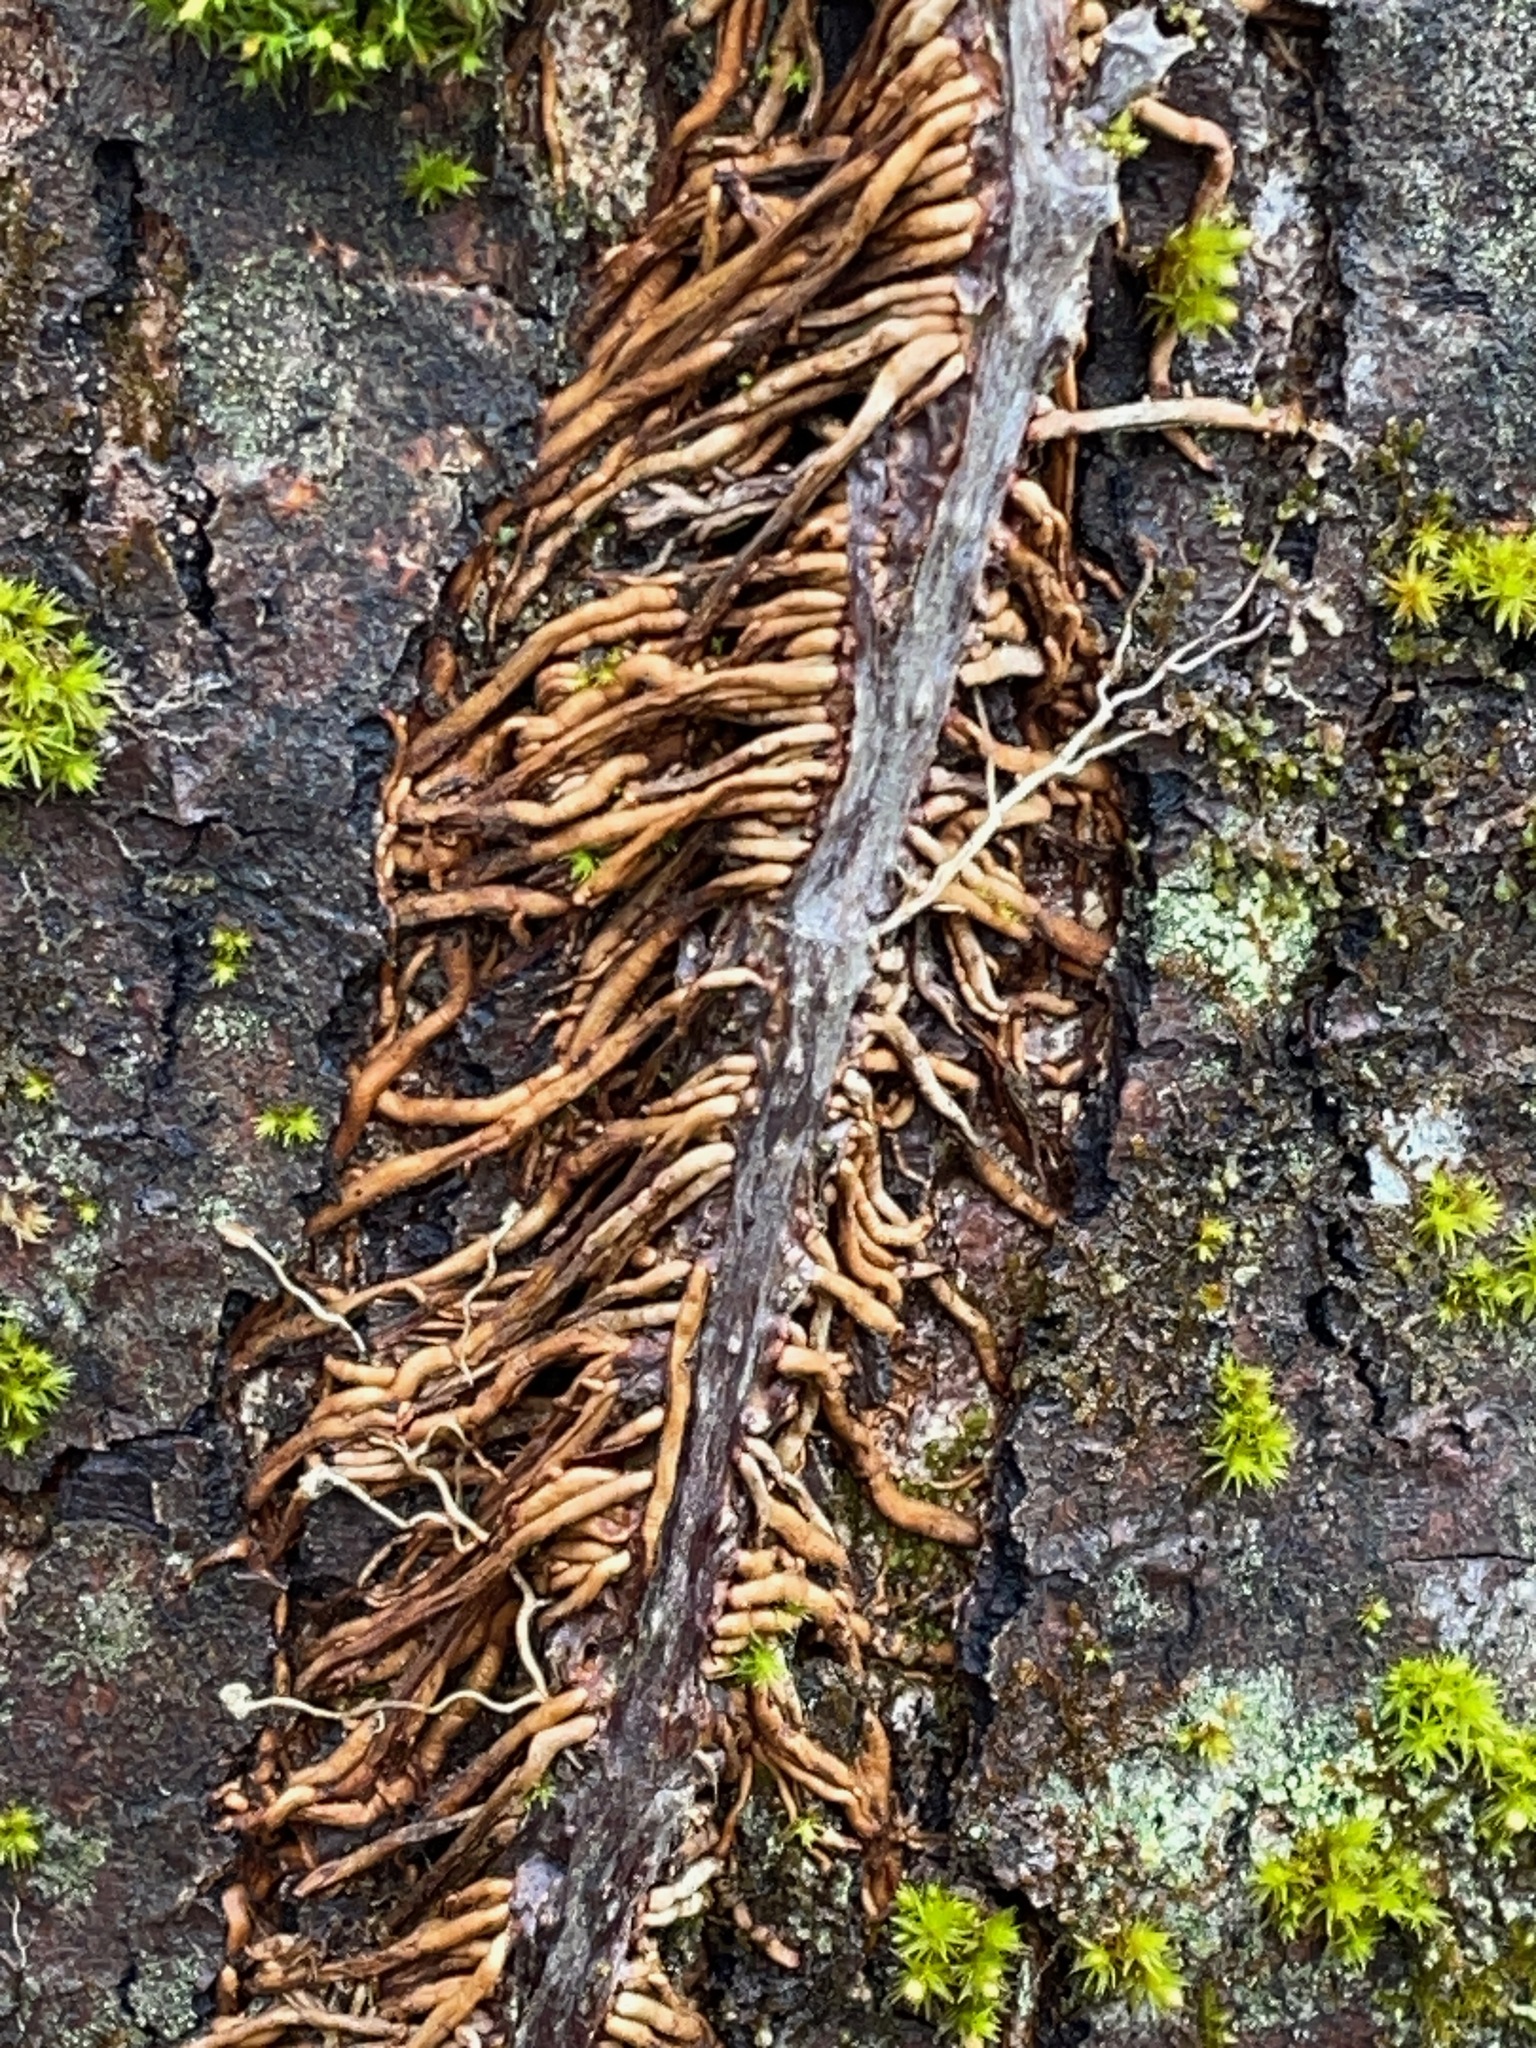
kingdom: Plantae
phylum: Tracheophyta
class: Magnoliopsida
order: Vitales
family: Vitaceae
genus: Parthenocissus
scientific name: Parthenocissus quinquefolia
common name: Virginia-creeper
